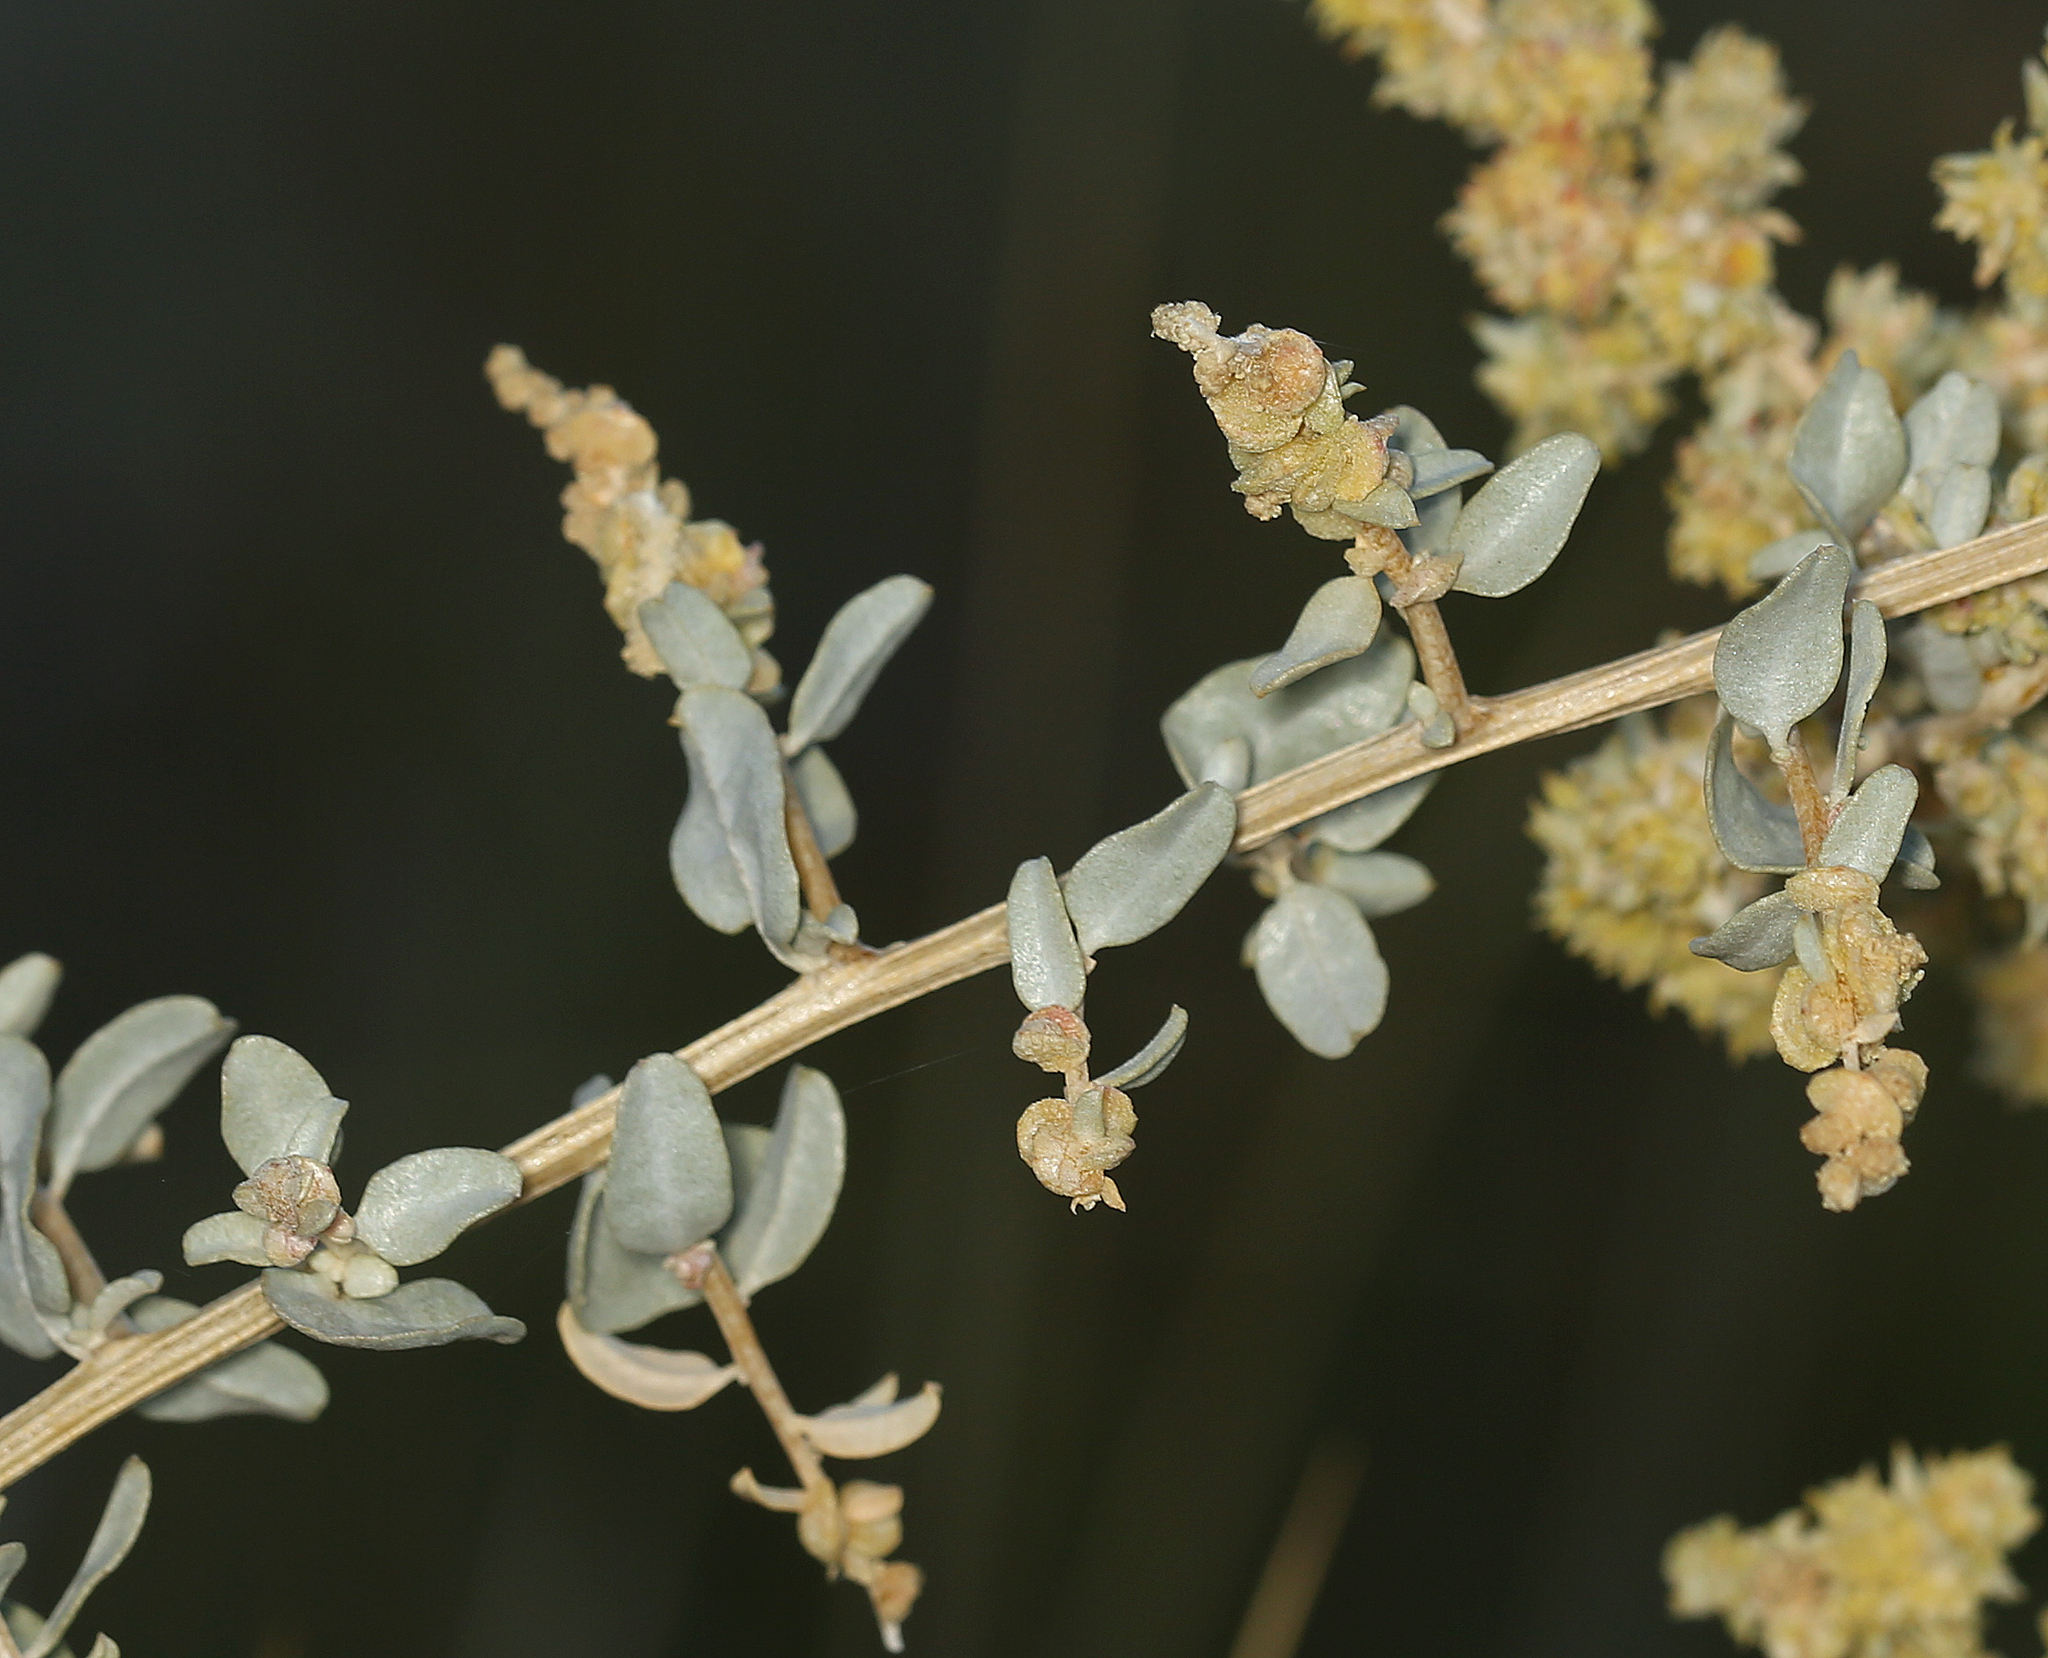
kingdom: Plantae
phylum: Tracheophyta
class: Magnoliopsida
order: Caryophyllales
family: Amaranthaceae
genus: Atriplex
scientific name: Atriplex torreyi
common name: Torrey's saltbush
